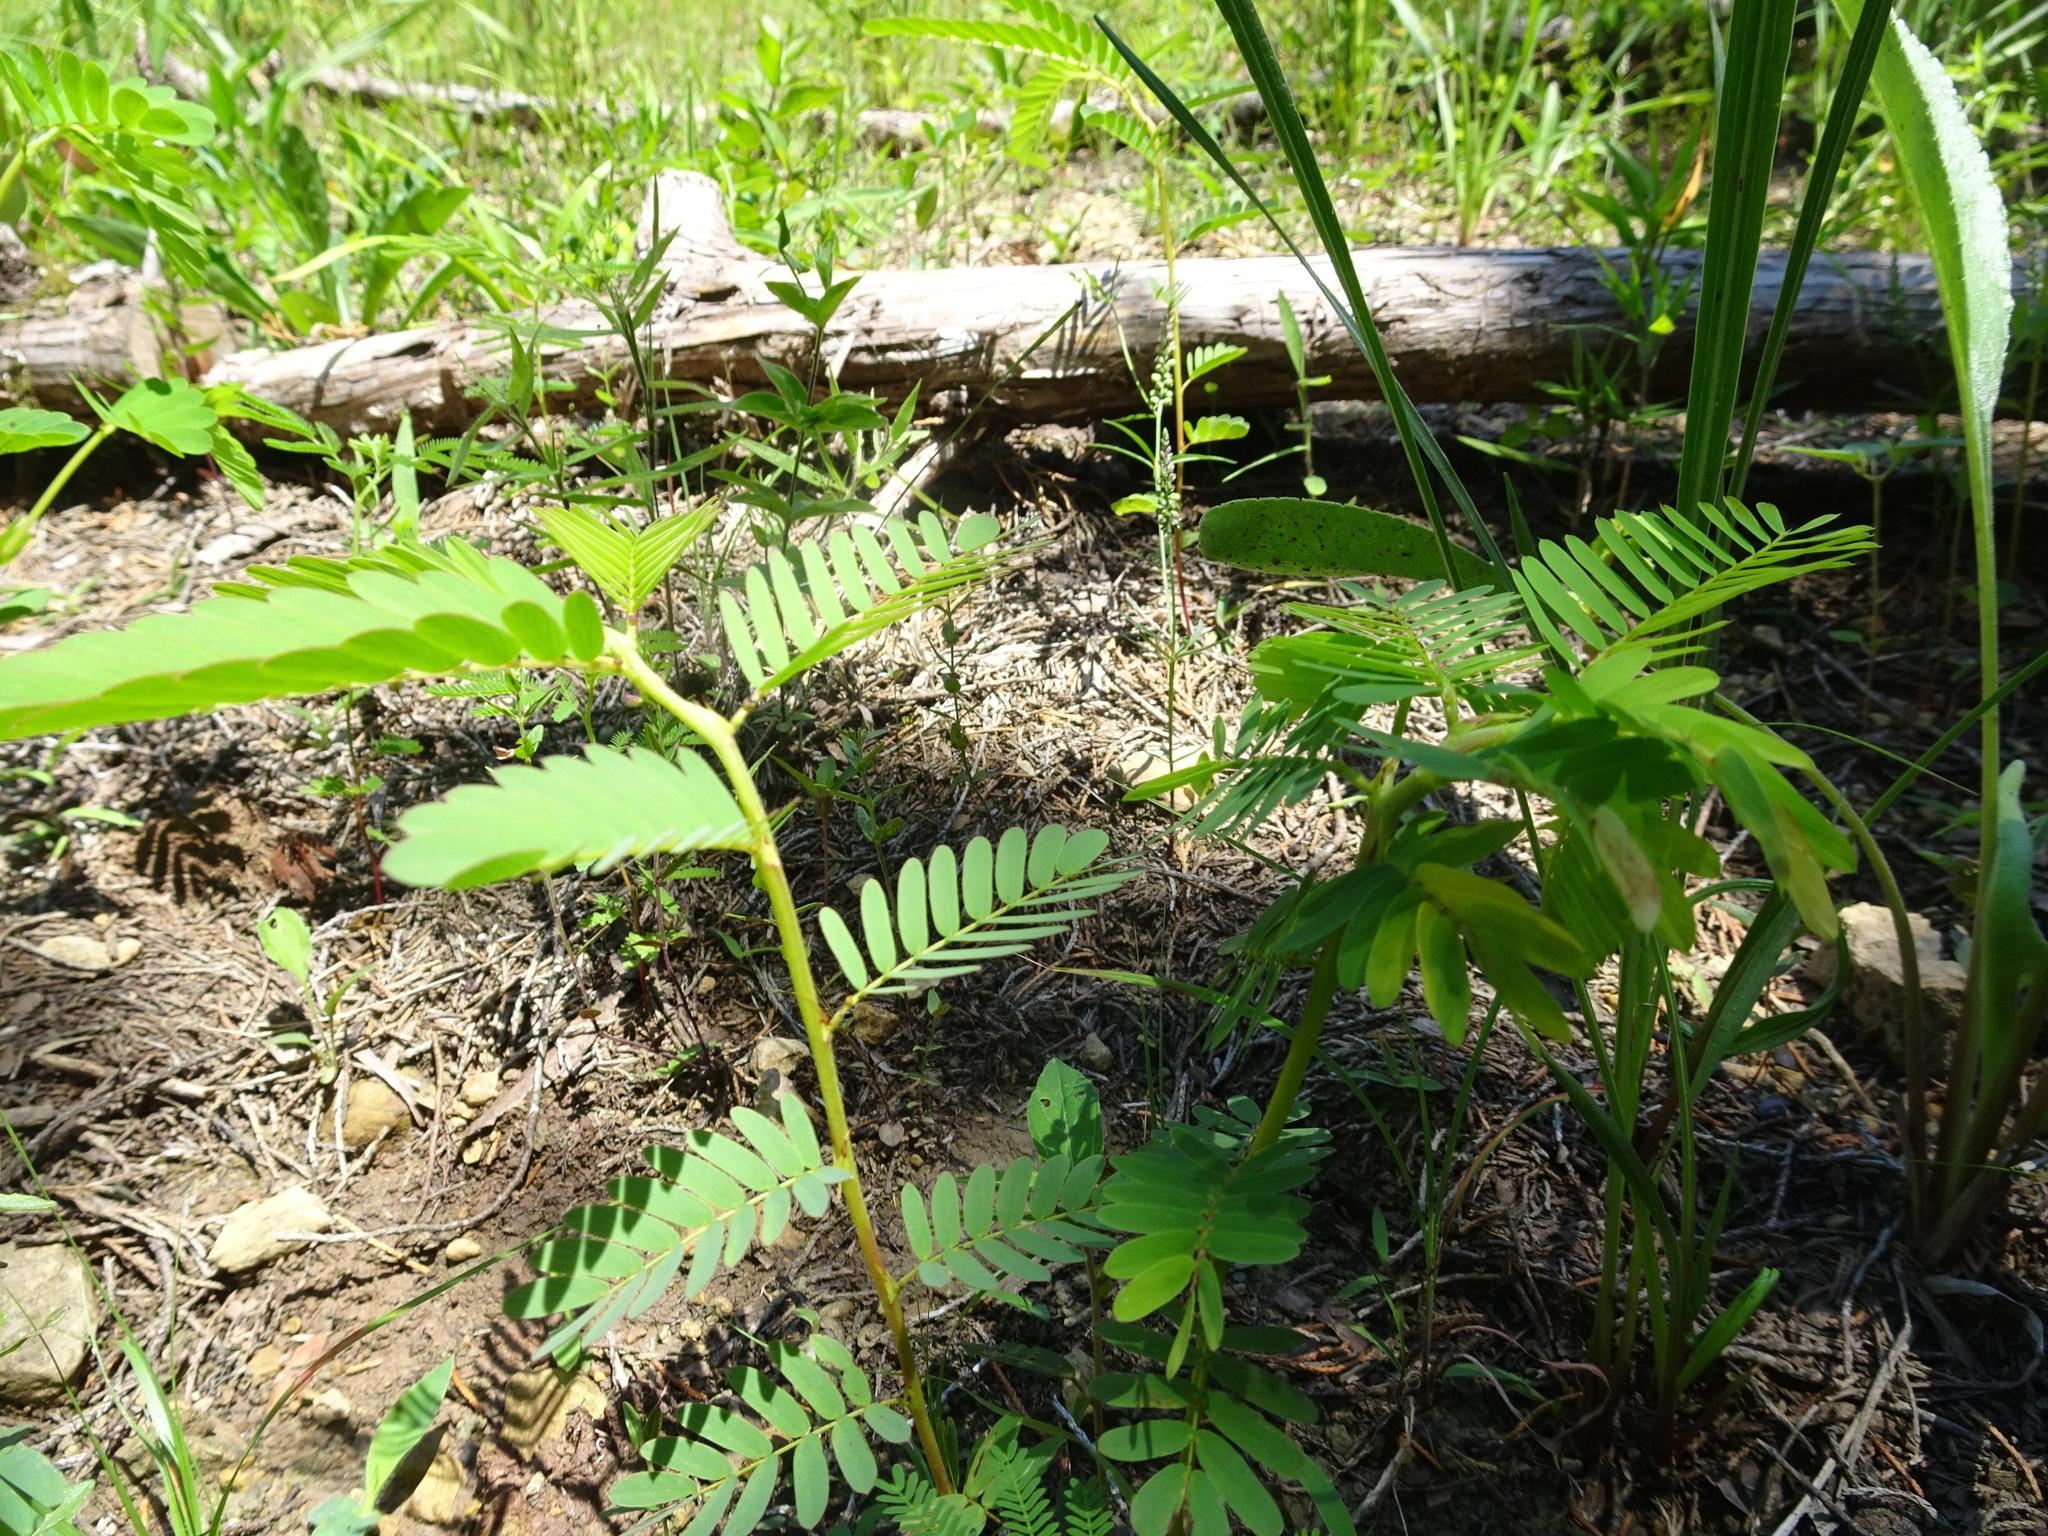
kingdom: Plantae
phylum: Tracheophyta
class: Magnoliopsida
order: Fabales
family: Fabaceae
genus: Chamaecrista
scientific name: Chamaecrista fasciculata
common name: Golden cassia
